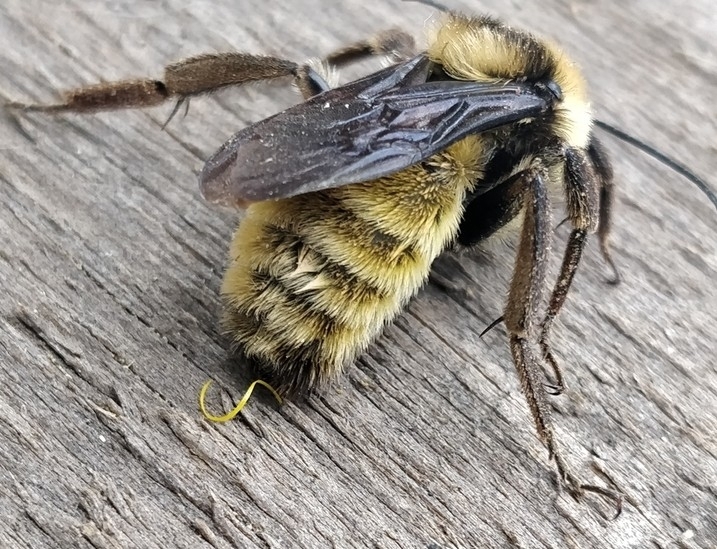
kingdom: Animalia
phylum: Arthropoda
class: Insecta
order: Hymenoptera
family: Apidae
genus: Bombus
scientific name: Bombus pensylvanicus
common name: Bumble bee
